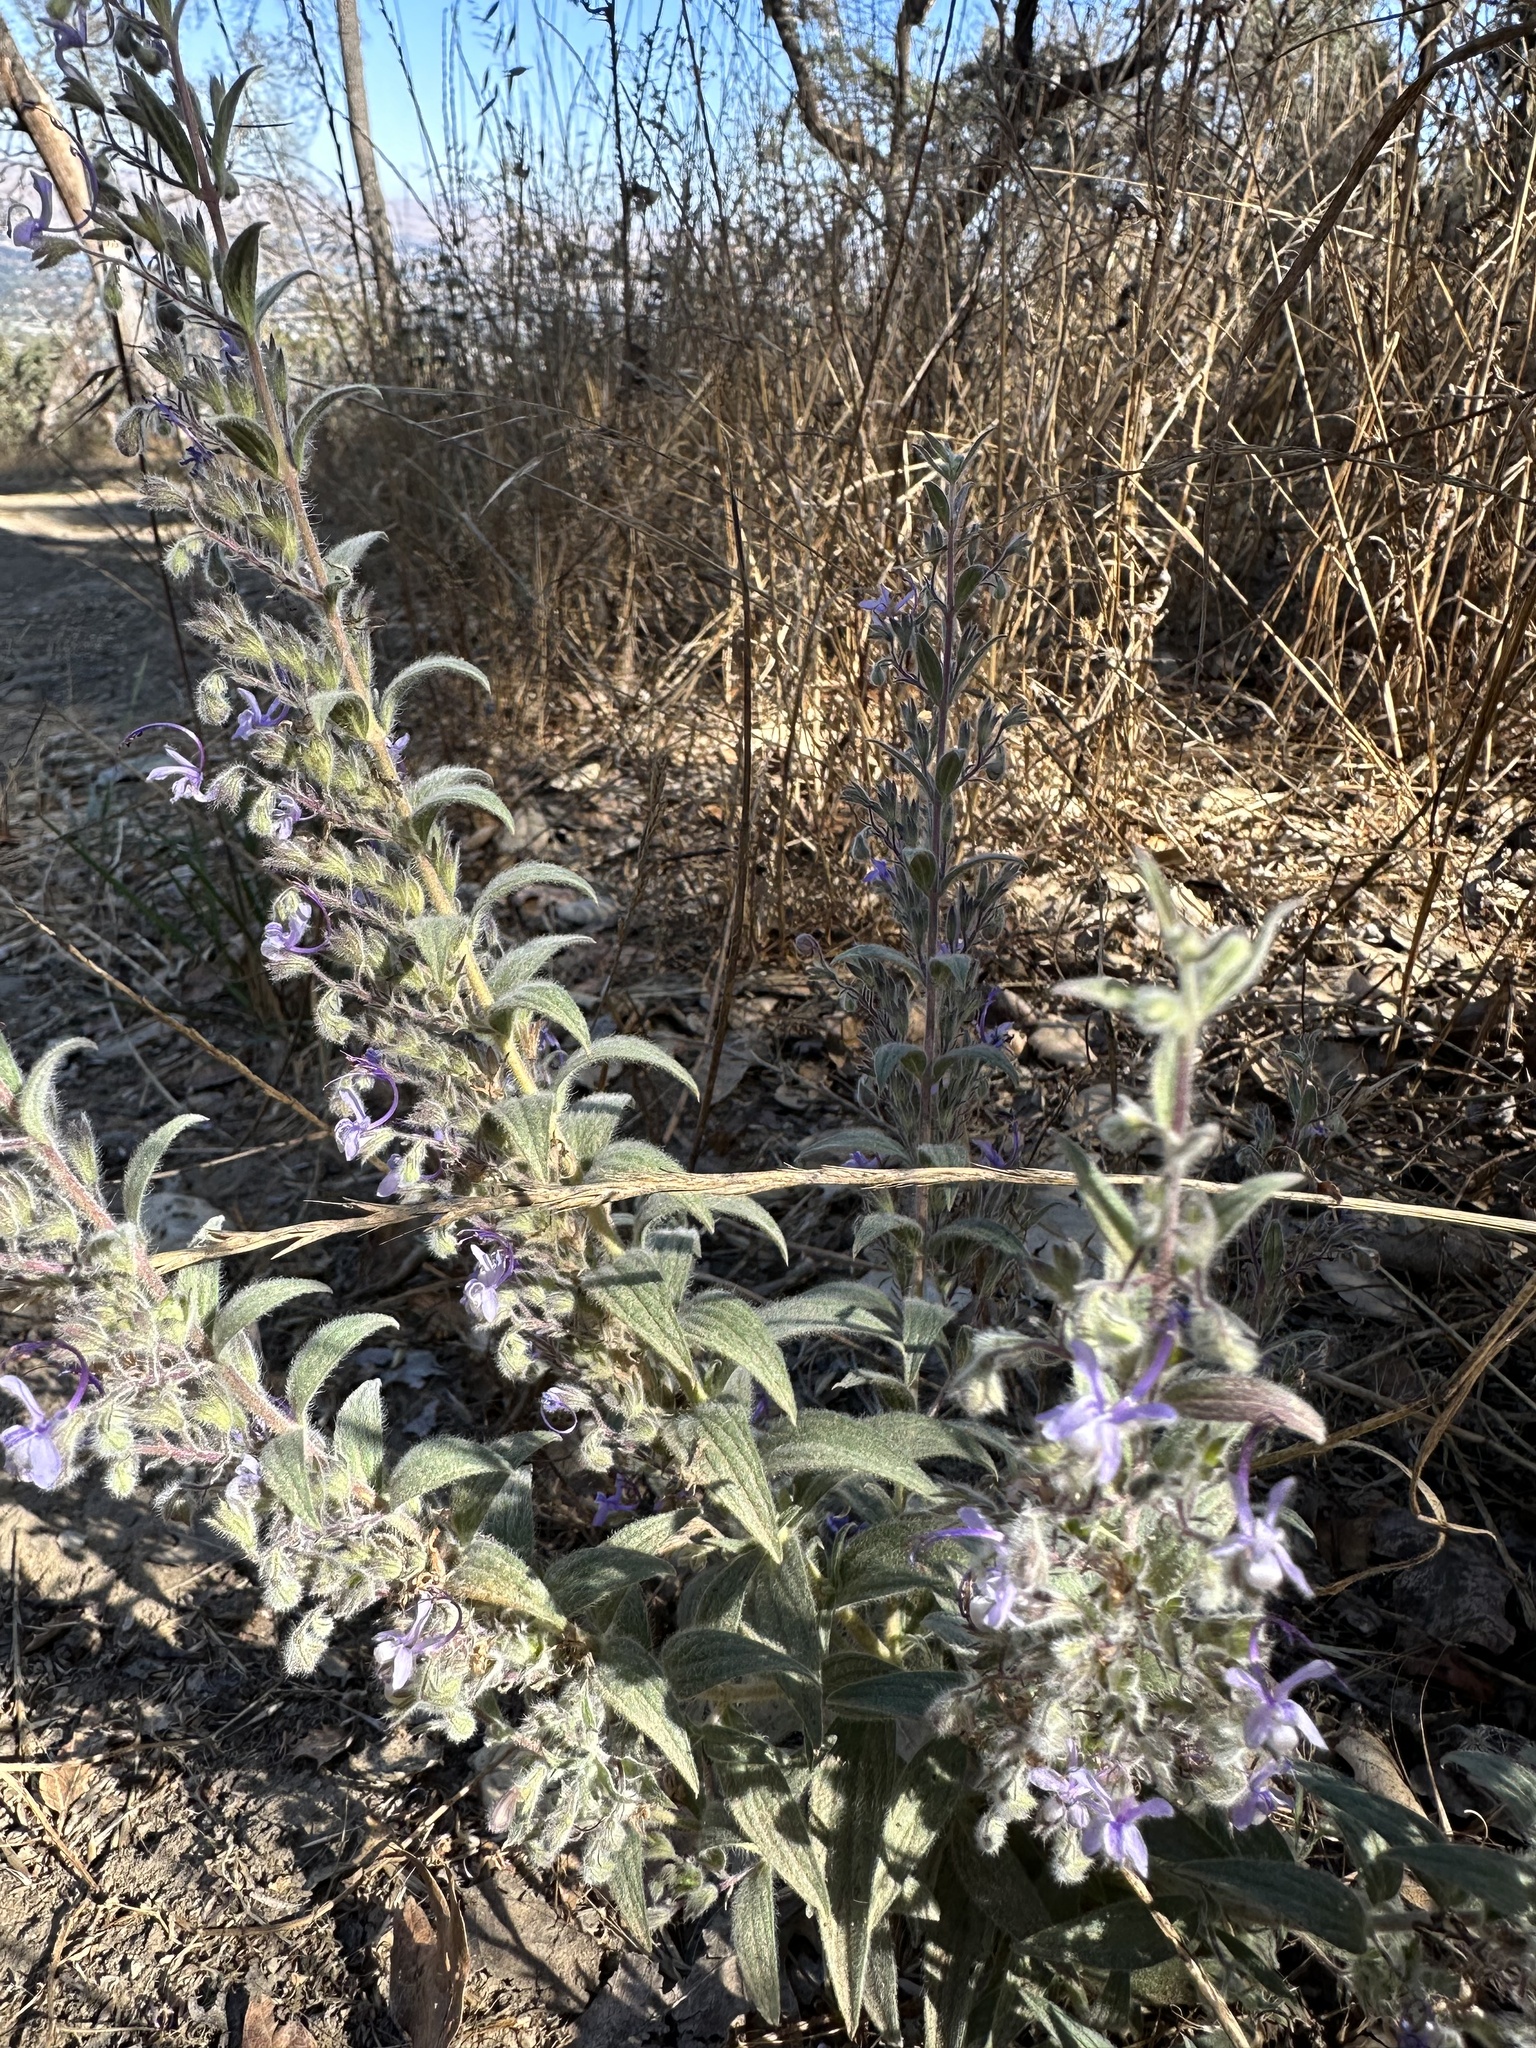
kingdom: Plantae
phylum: Tracheophyta
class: Magnoliopsida
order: Lamiales
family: Lamiaceae
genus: Trichostema
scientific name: Trichostema lanceolatum
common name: Vinegar-weed
